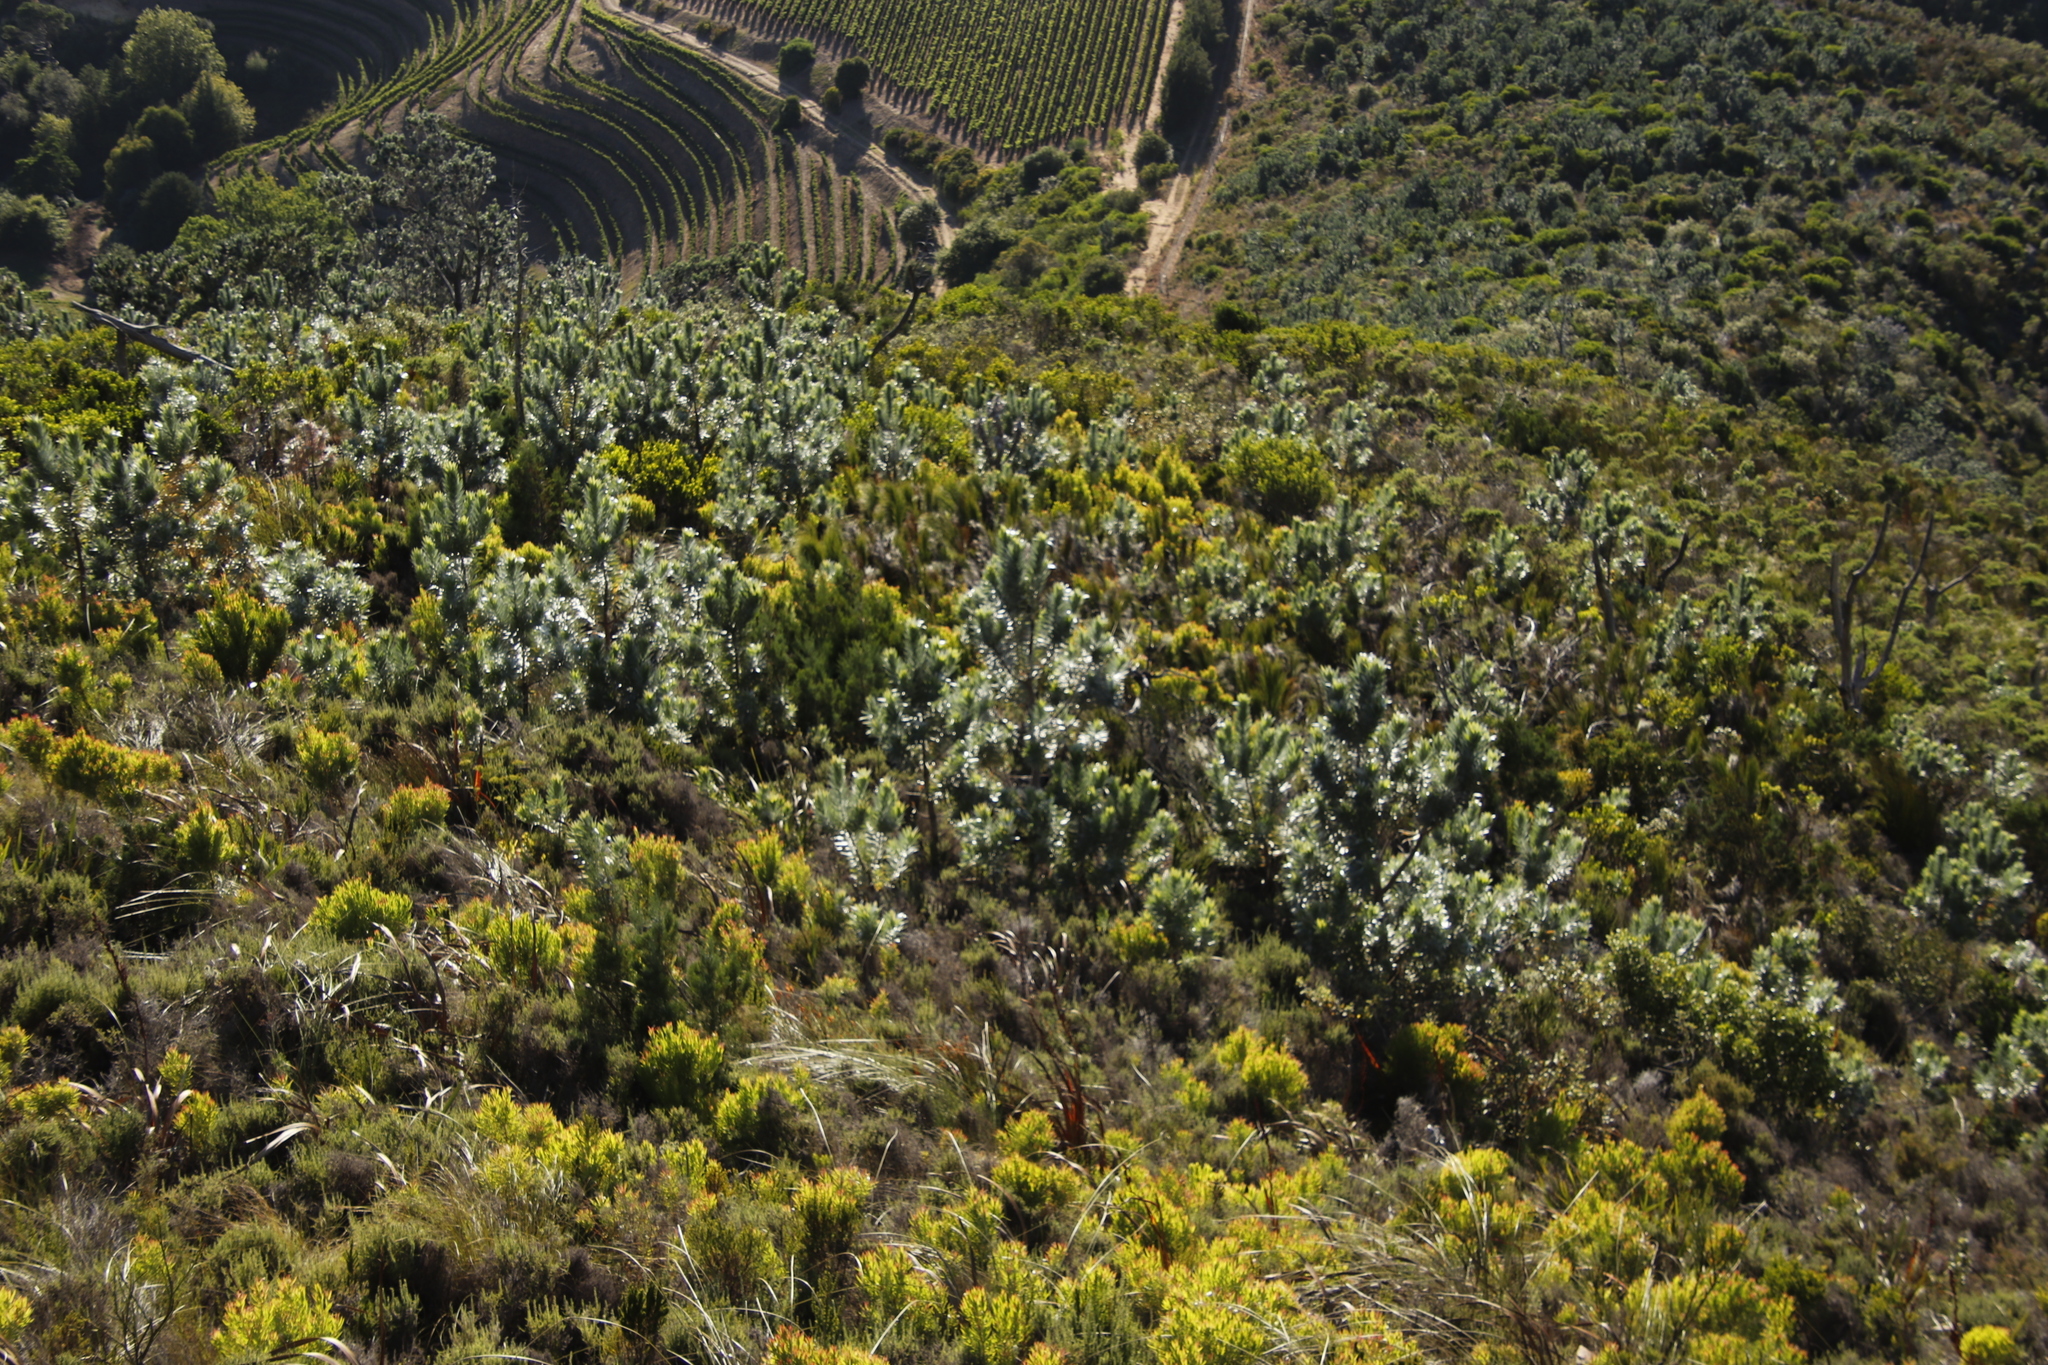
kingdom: Plantae
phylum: Tracheophyta
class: Magnoliopsida
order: Proteales
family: Proteaceae
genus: Leucadendron
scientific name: Leucadendron argenteum
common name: Cape silver tree
